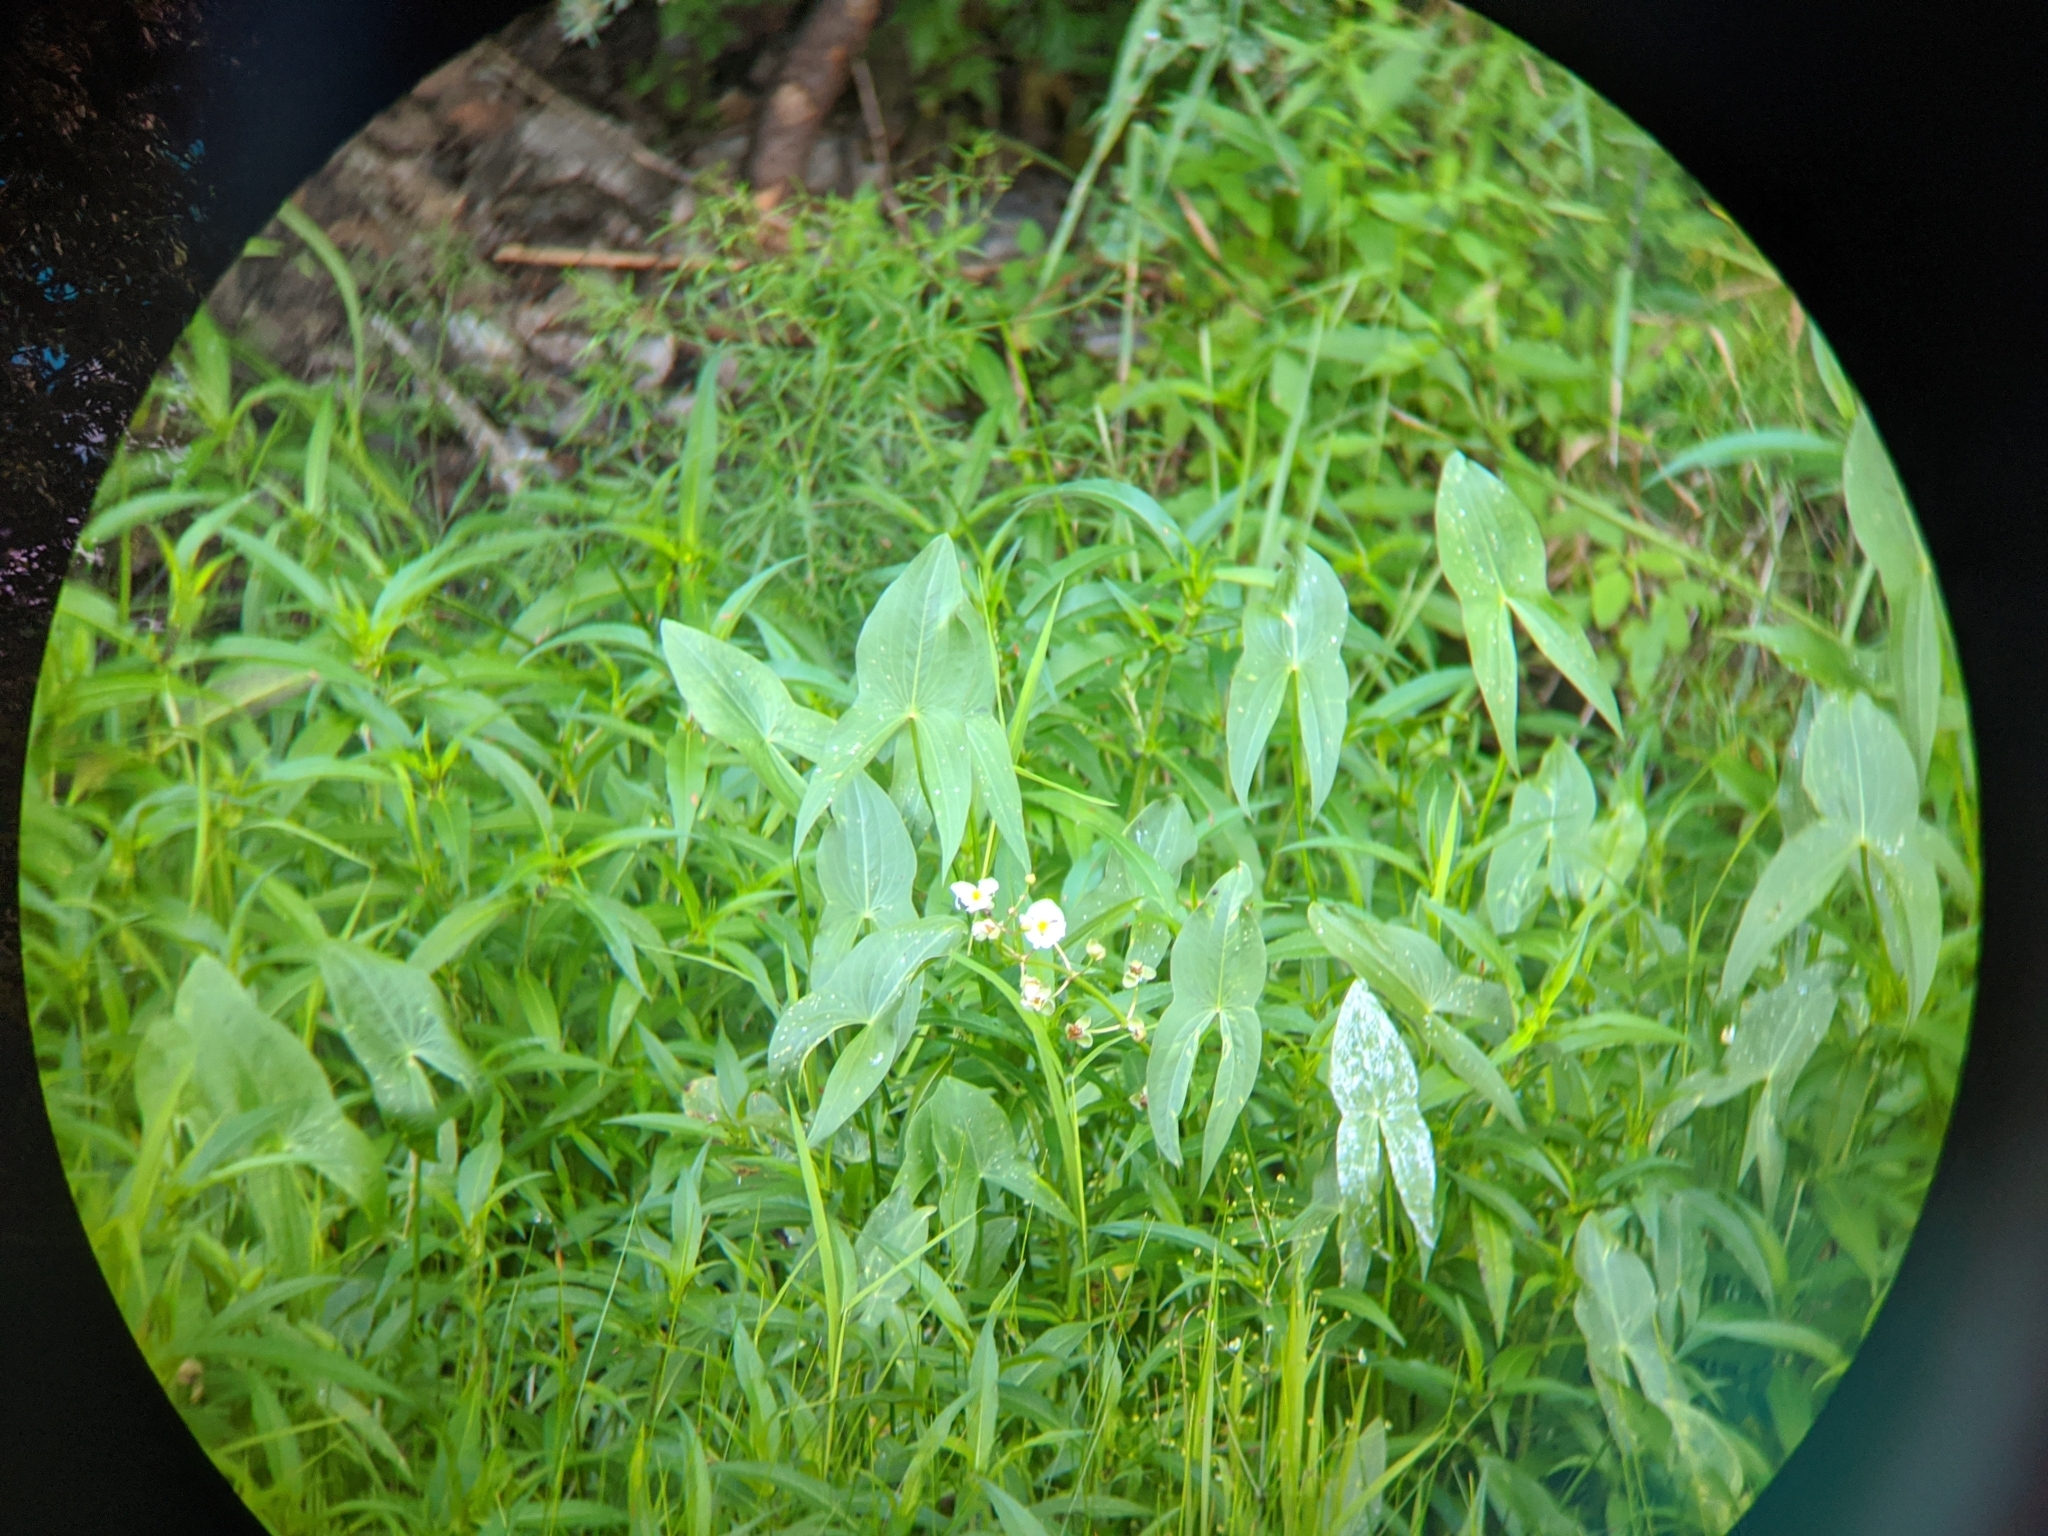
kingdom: Plantae
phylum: Tracheophyta
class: Liliopsida
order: Alismatales
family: Alismataceae
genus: Sagittaria
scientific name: Sagittaria latifolia
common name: Duck-potato
